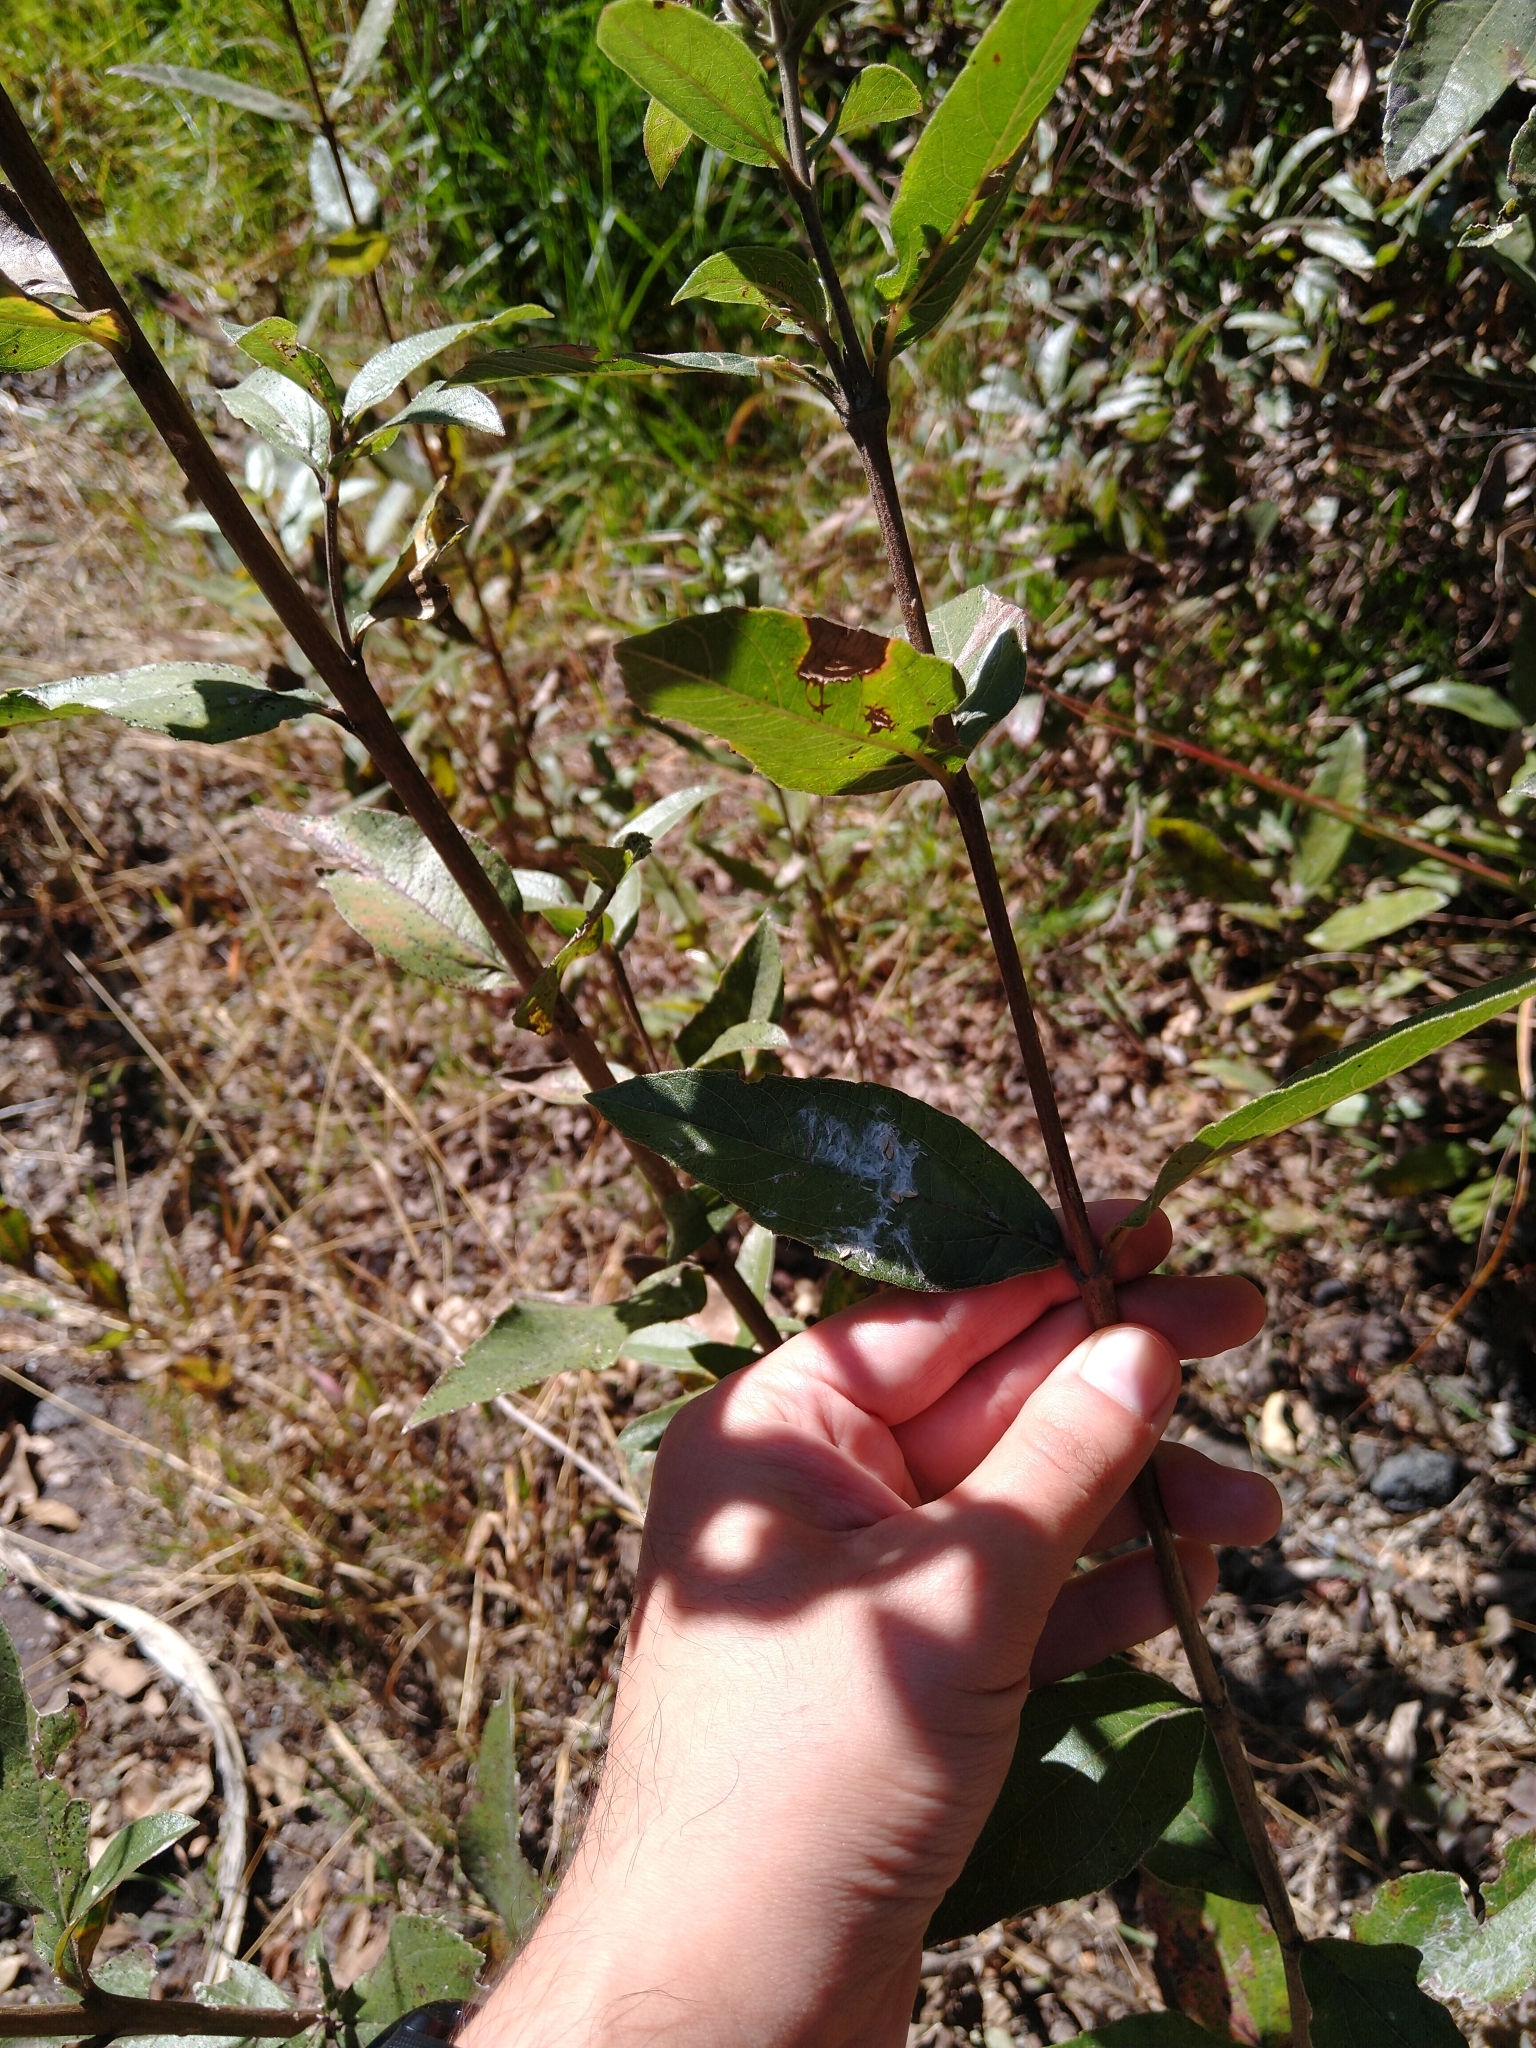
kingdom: Plantae
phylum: Tracheophyta
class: Magnoliopsida
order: Asterales
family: Asteraceae
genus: Lagascea
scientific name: Lagascea rigida
